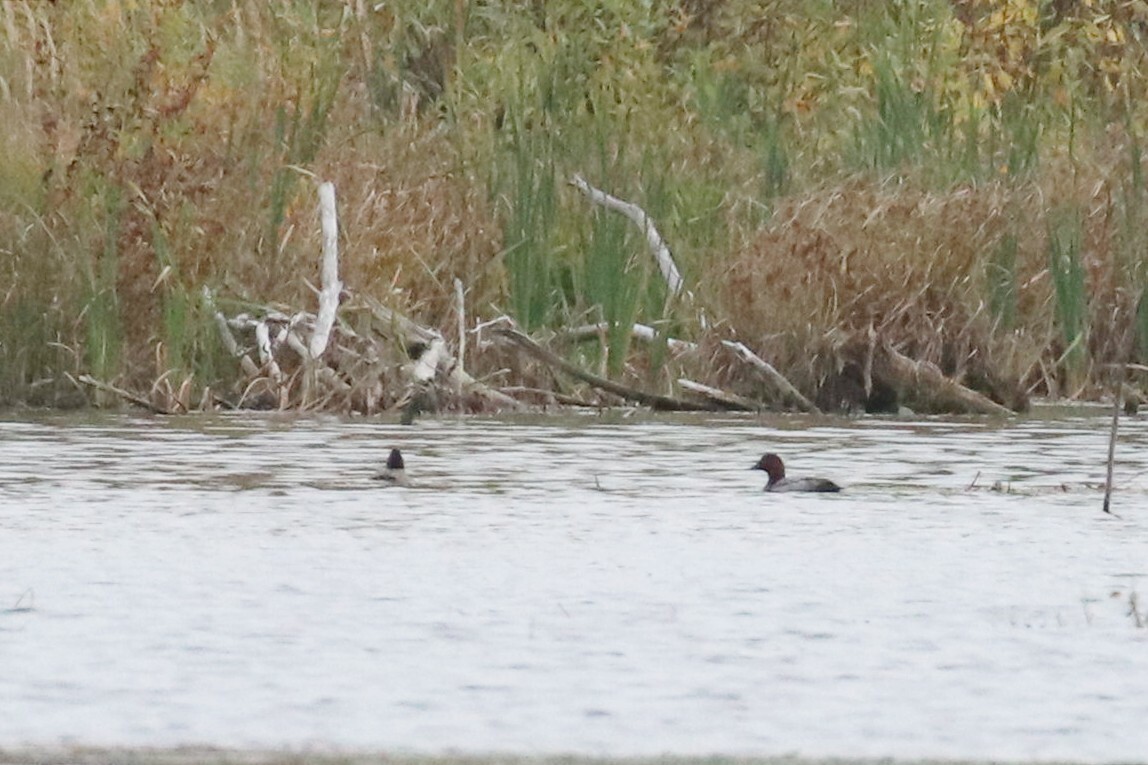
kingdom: Animalia
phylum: Chordata
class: Aves
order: Anseriformes
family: Anatidae
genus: Aythya
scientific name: Aythya ferina
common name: Common pochard
